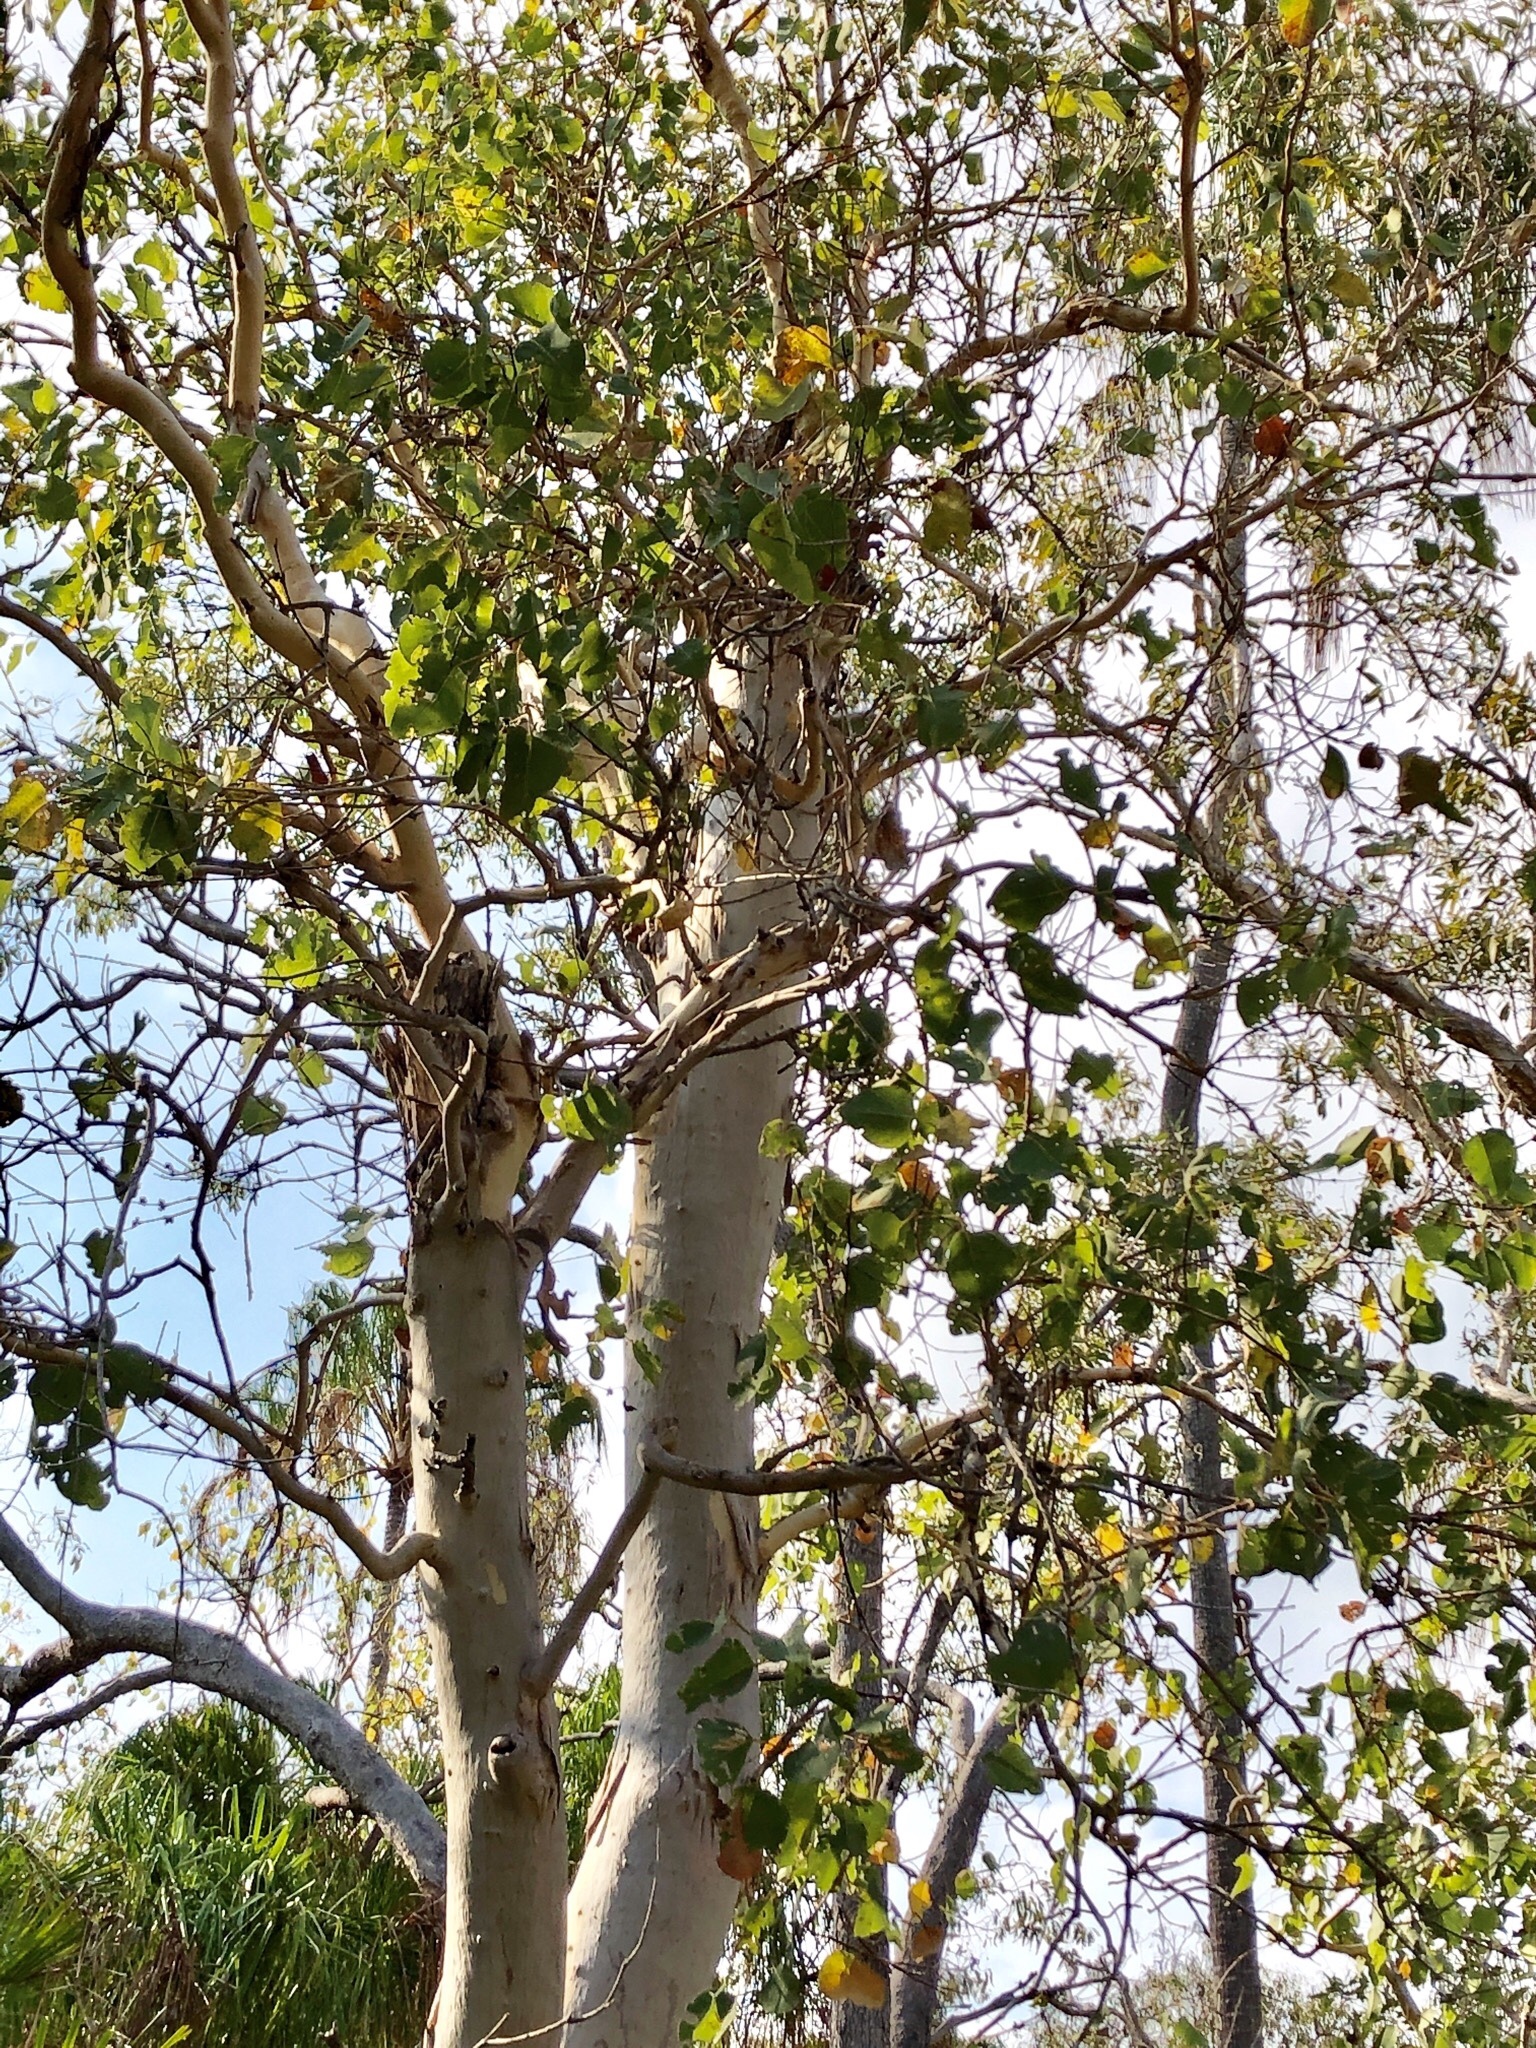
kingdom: Plantae
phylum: Tracheophyta
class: Magnoliopsida
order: Myrtales
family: Myrtaceae
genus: Eucalyptus
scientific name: Eucalyptus platyphylla
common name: Poplar-gum
